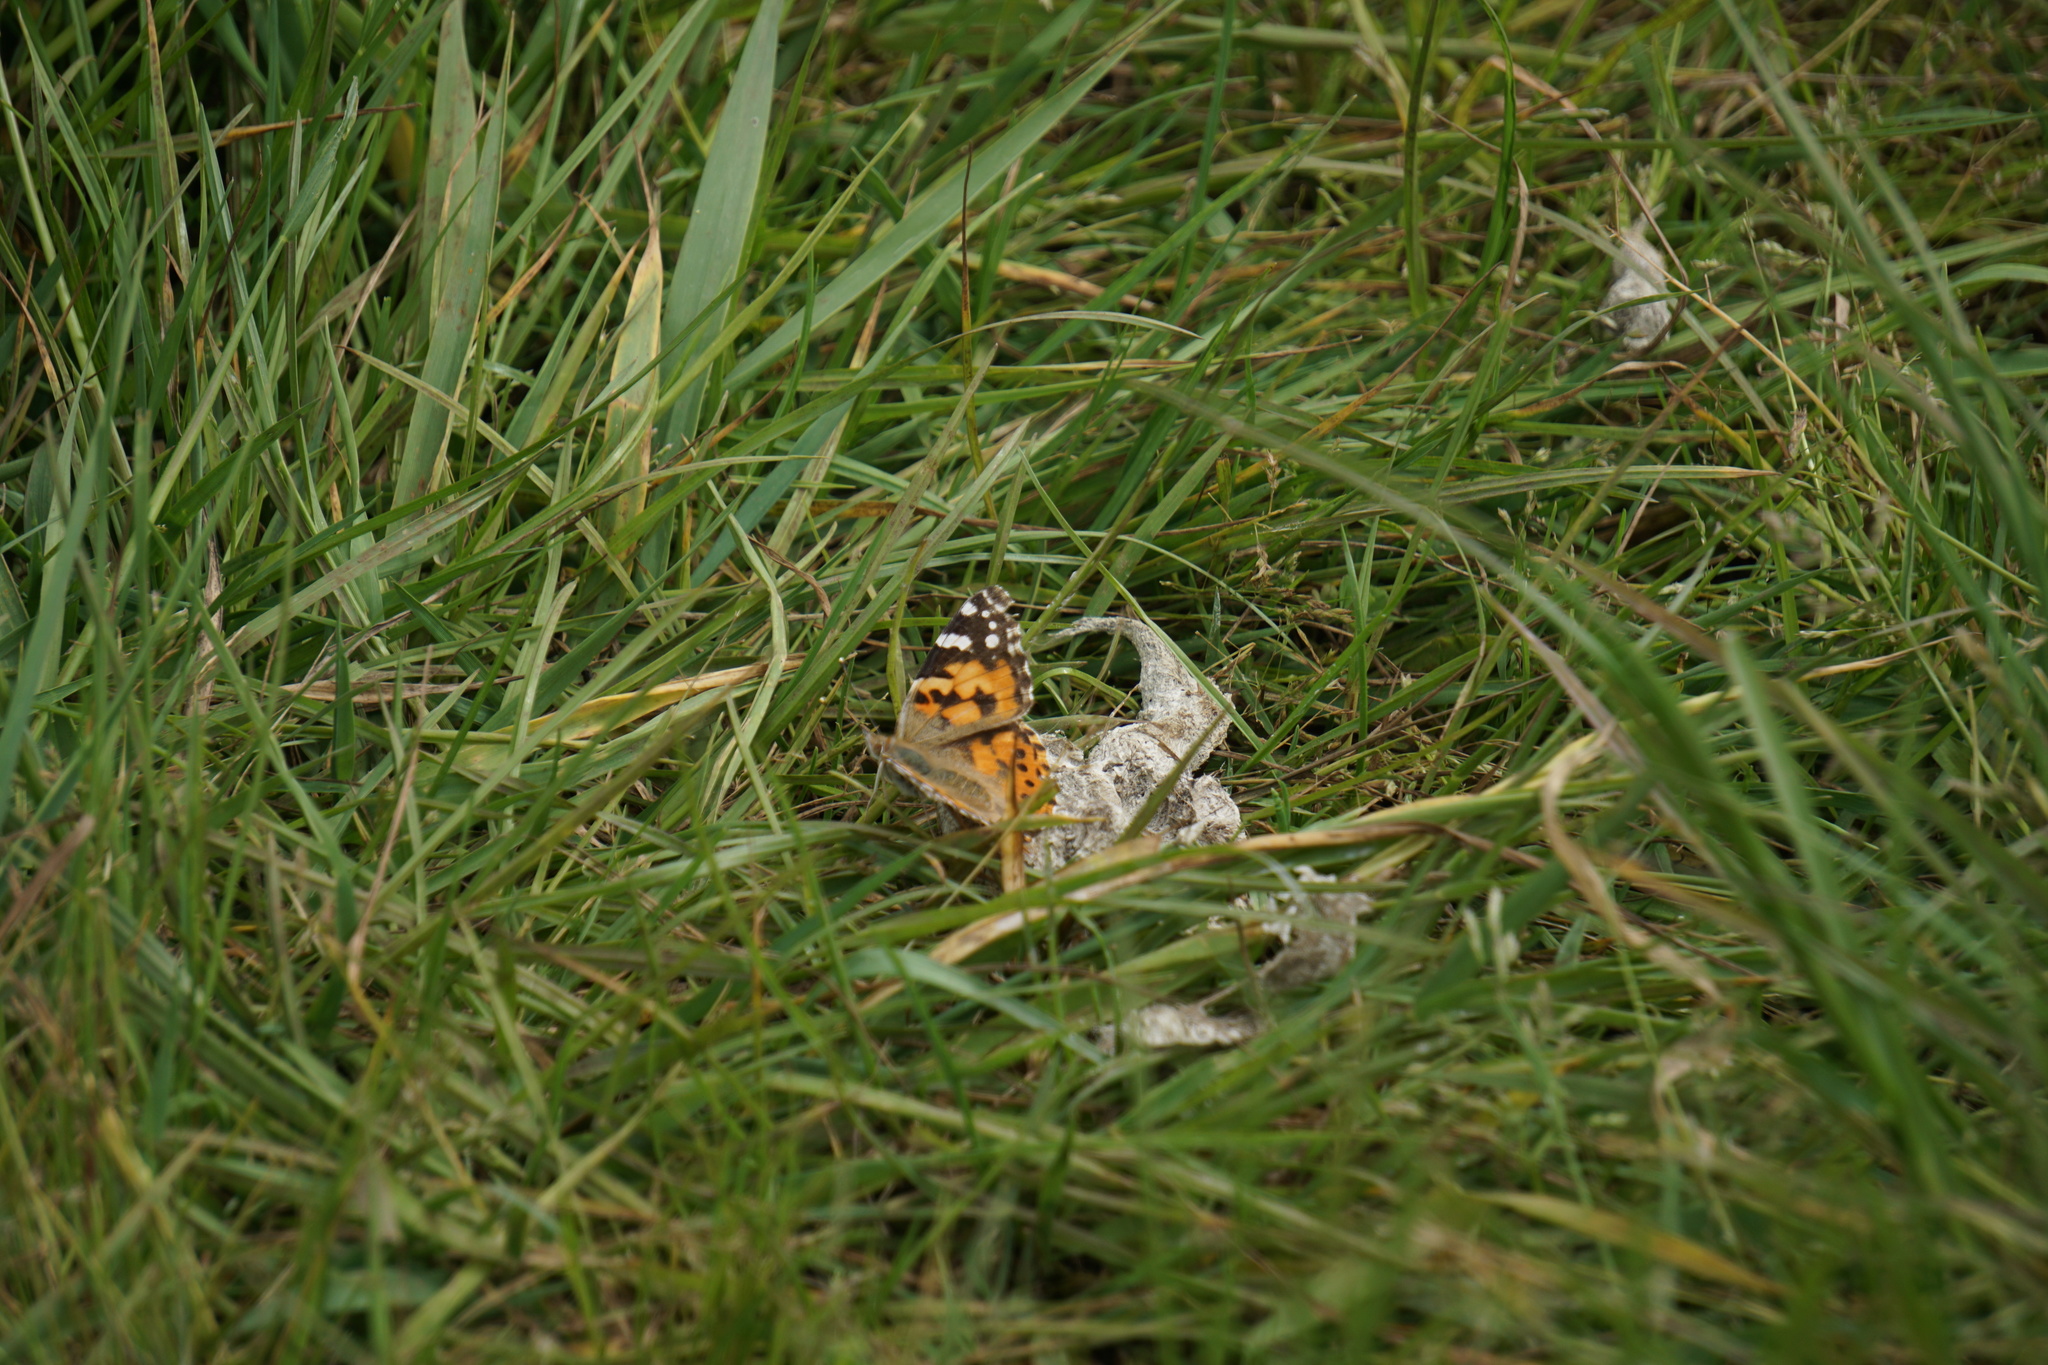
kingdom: Animalia
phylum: Arthropoda
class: Insecta
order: Lepidoptera
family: Nymphalidae
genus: Vanessa
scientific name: Vanessa cardui
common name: Painted lady
